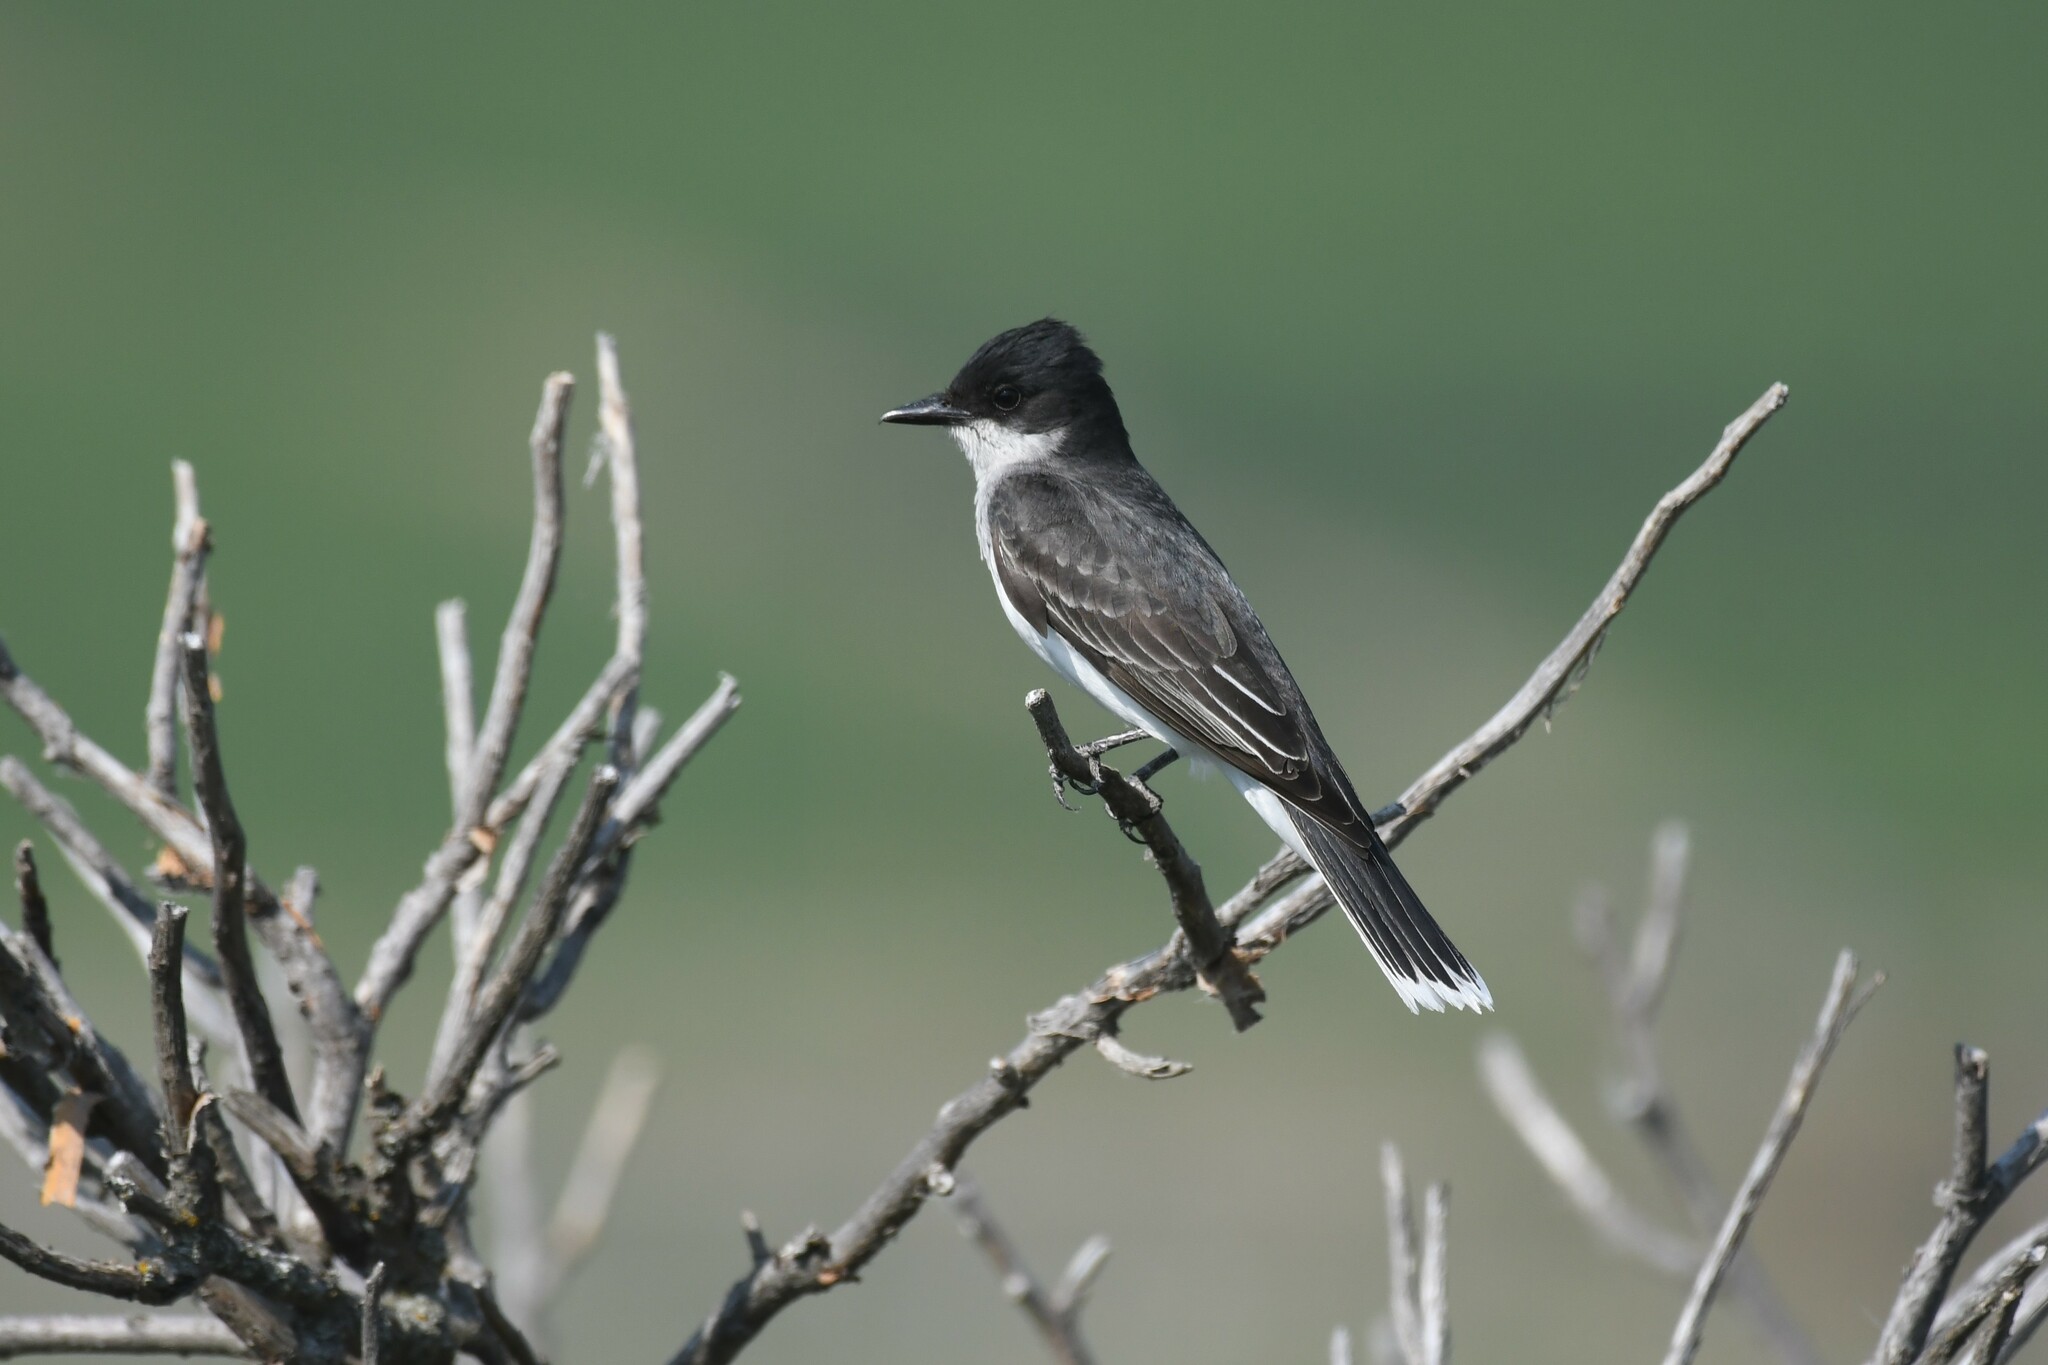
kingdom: Animalia
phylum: Chordata
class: Aves
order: Passeriformes
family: Tyrannidae
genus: Tyrannus
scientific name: Tyrannus tyrannus
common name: Eastern kingbird
